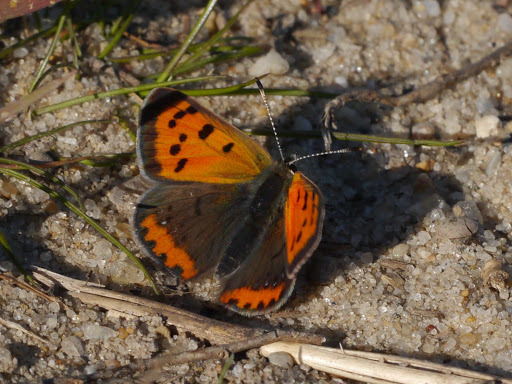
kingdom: Animalia
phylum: Arthropoda
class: Insecta
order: Lepidoptera
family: Lycaenidae
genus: Lycaena
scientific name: Lycaena hypophlaeas
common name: American copper
